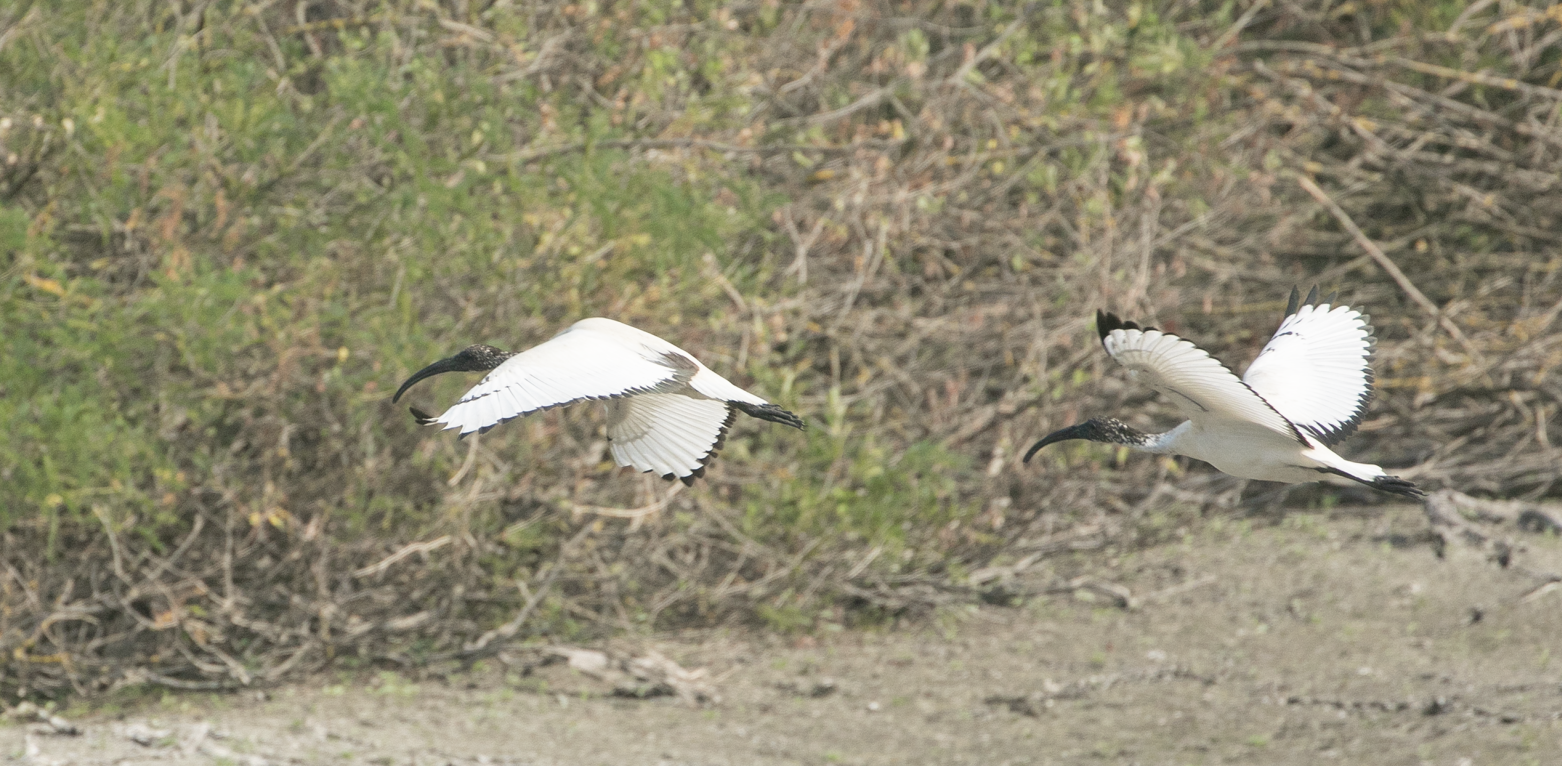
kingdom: Animalia
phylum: Chordata
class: Aves
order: Pelecaniformes
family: Threskiornithidae
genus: Threskiornis
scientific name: Threskiornis aethiopicus
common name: Sacred ibis
